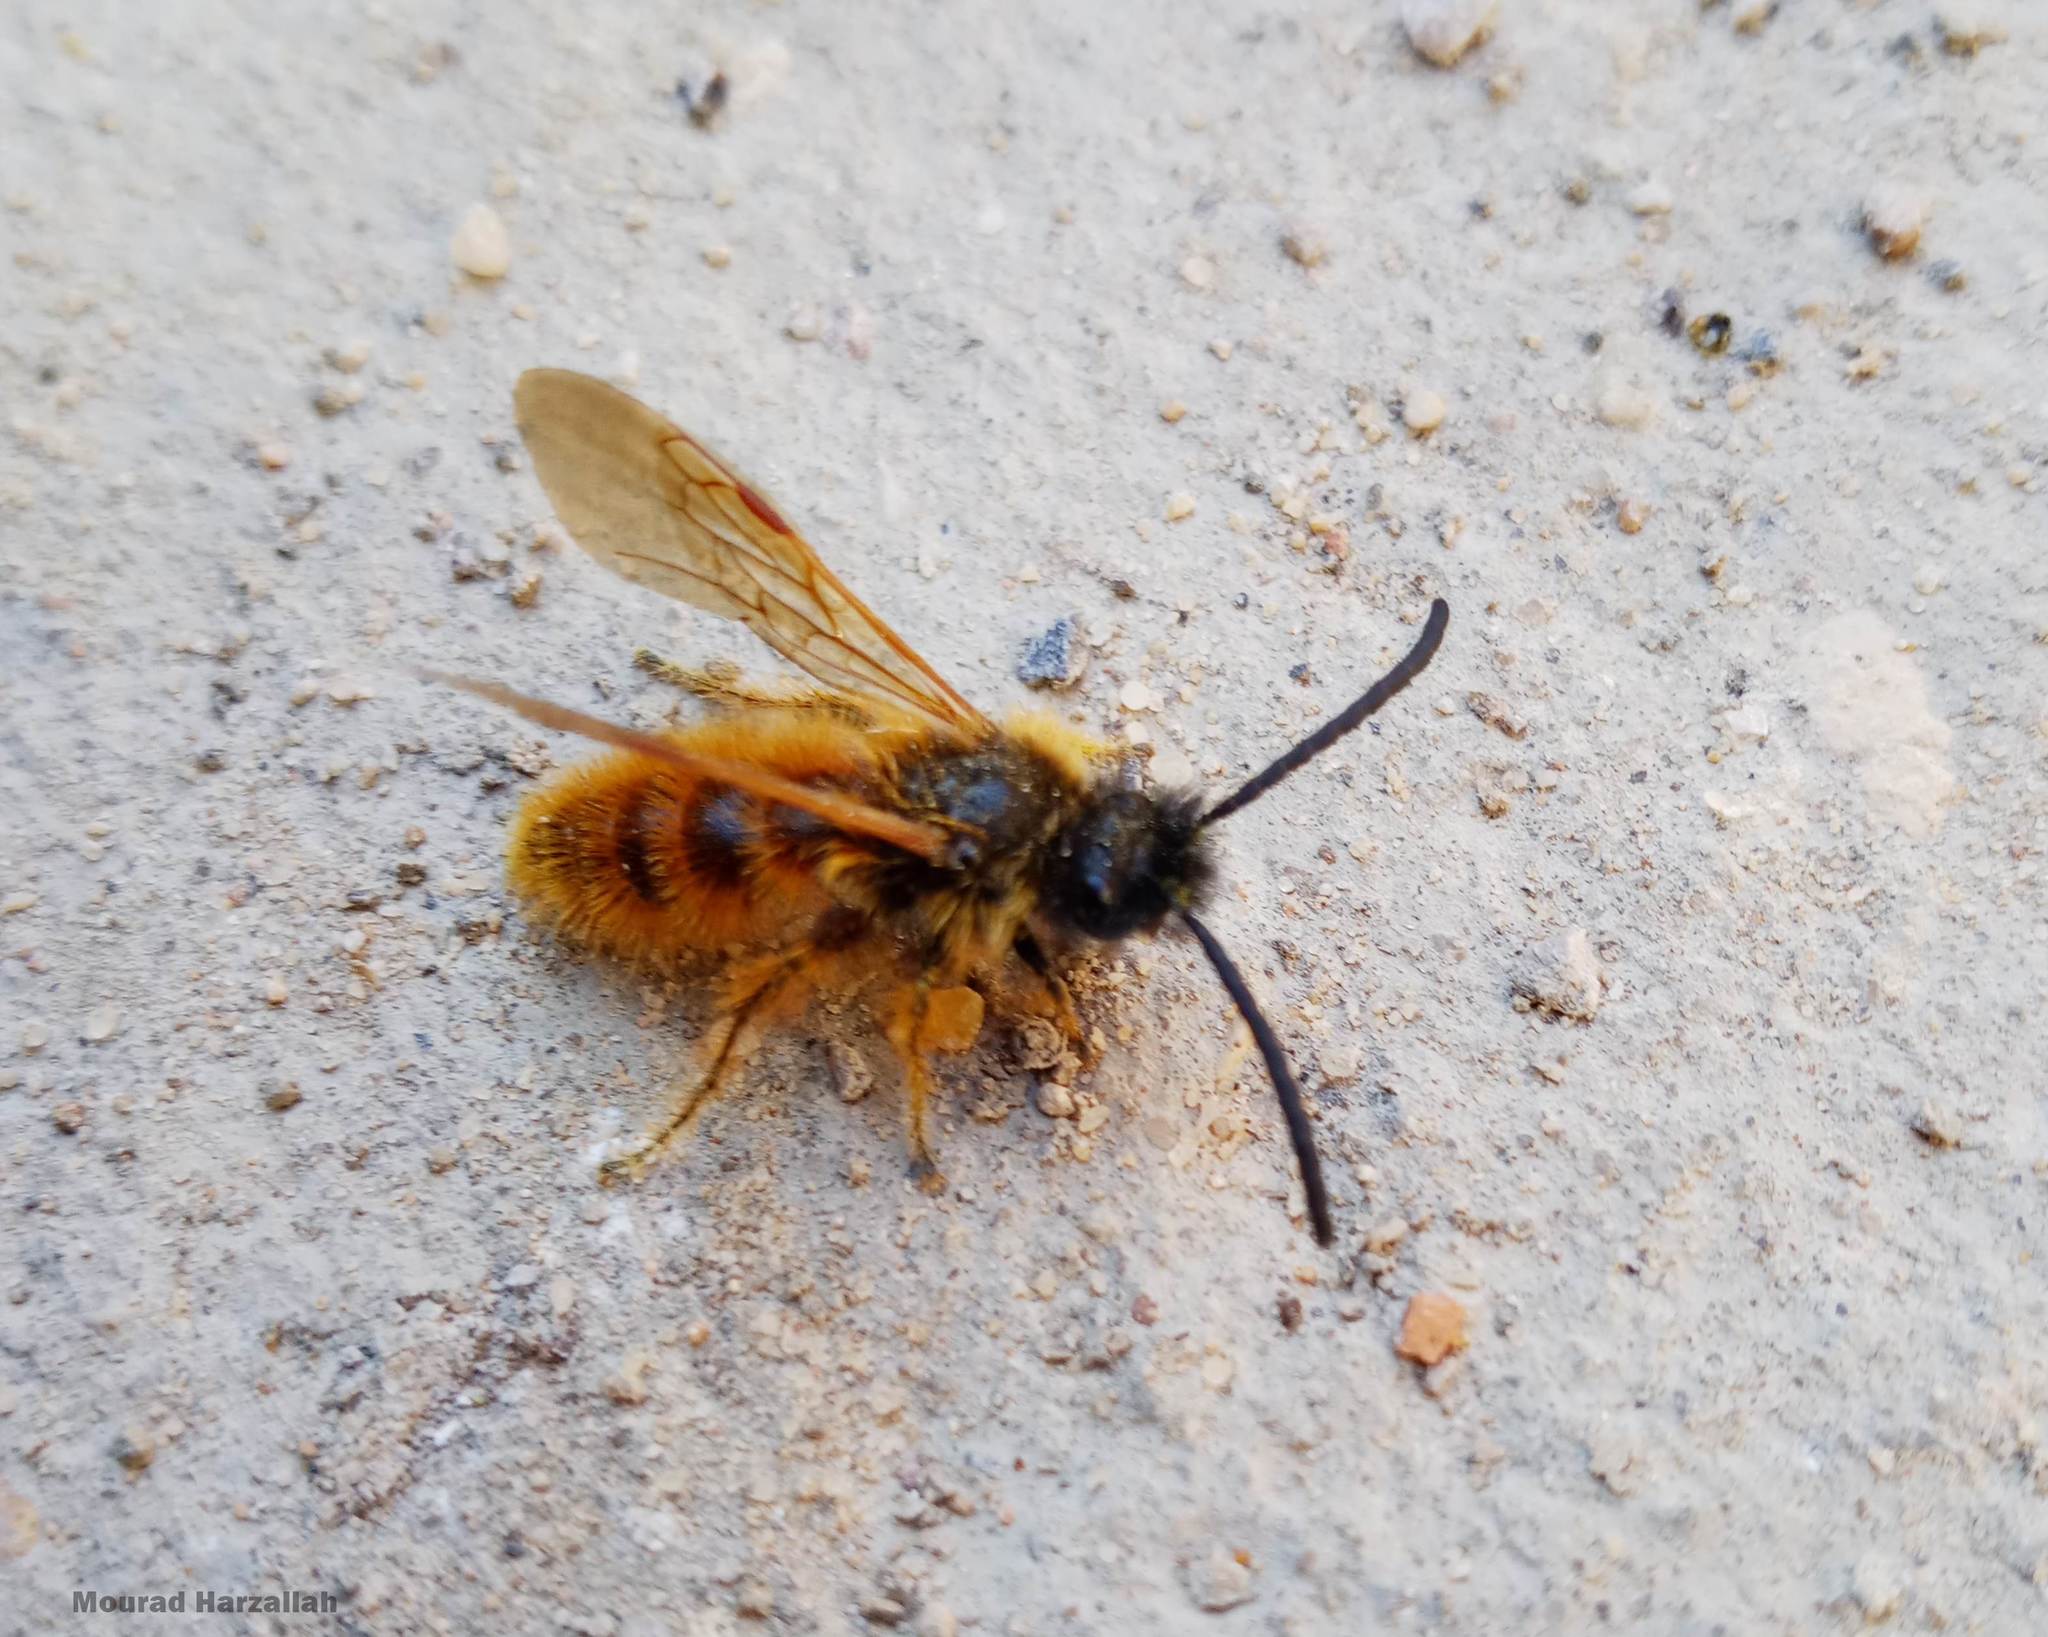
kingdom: Animalia
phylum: Arthropoda
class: Insecta
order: Hymenoptera
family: Scoliidae
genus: Dasyscolia
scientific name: Dasyscolia ciliata
